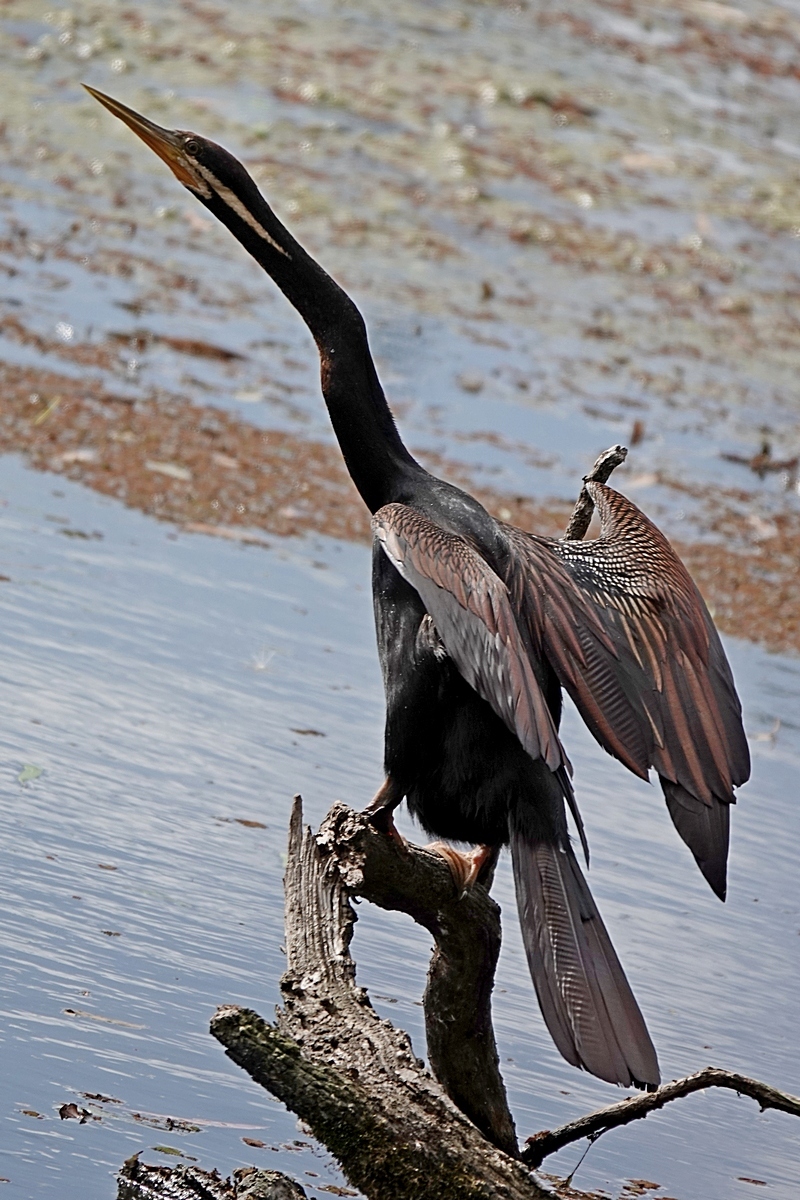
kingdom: Animalia
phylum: Chordata
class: Aves
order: Suliformes
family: Anhingidae
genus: Anhinga
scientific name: Anhinga novaehollandiae
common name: Australasian darter
